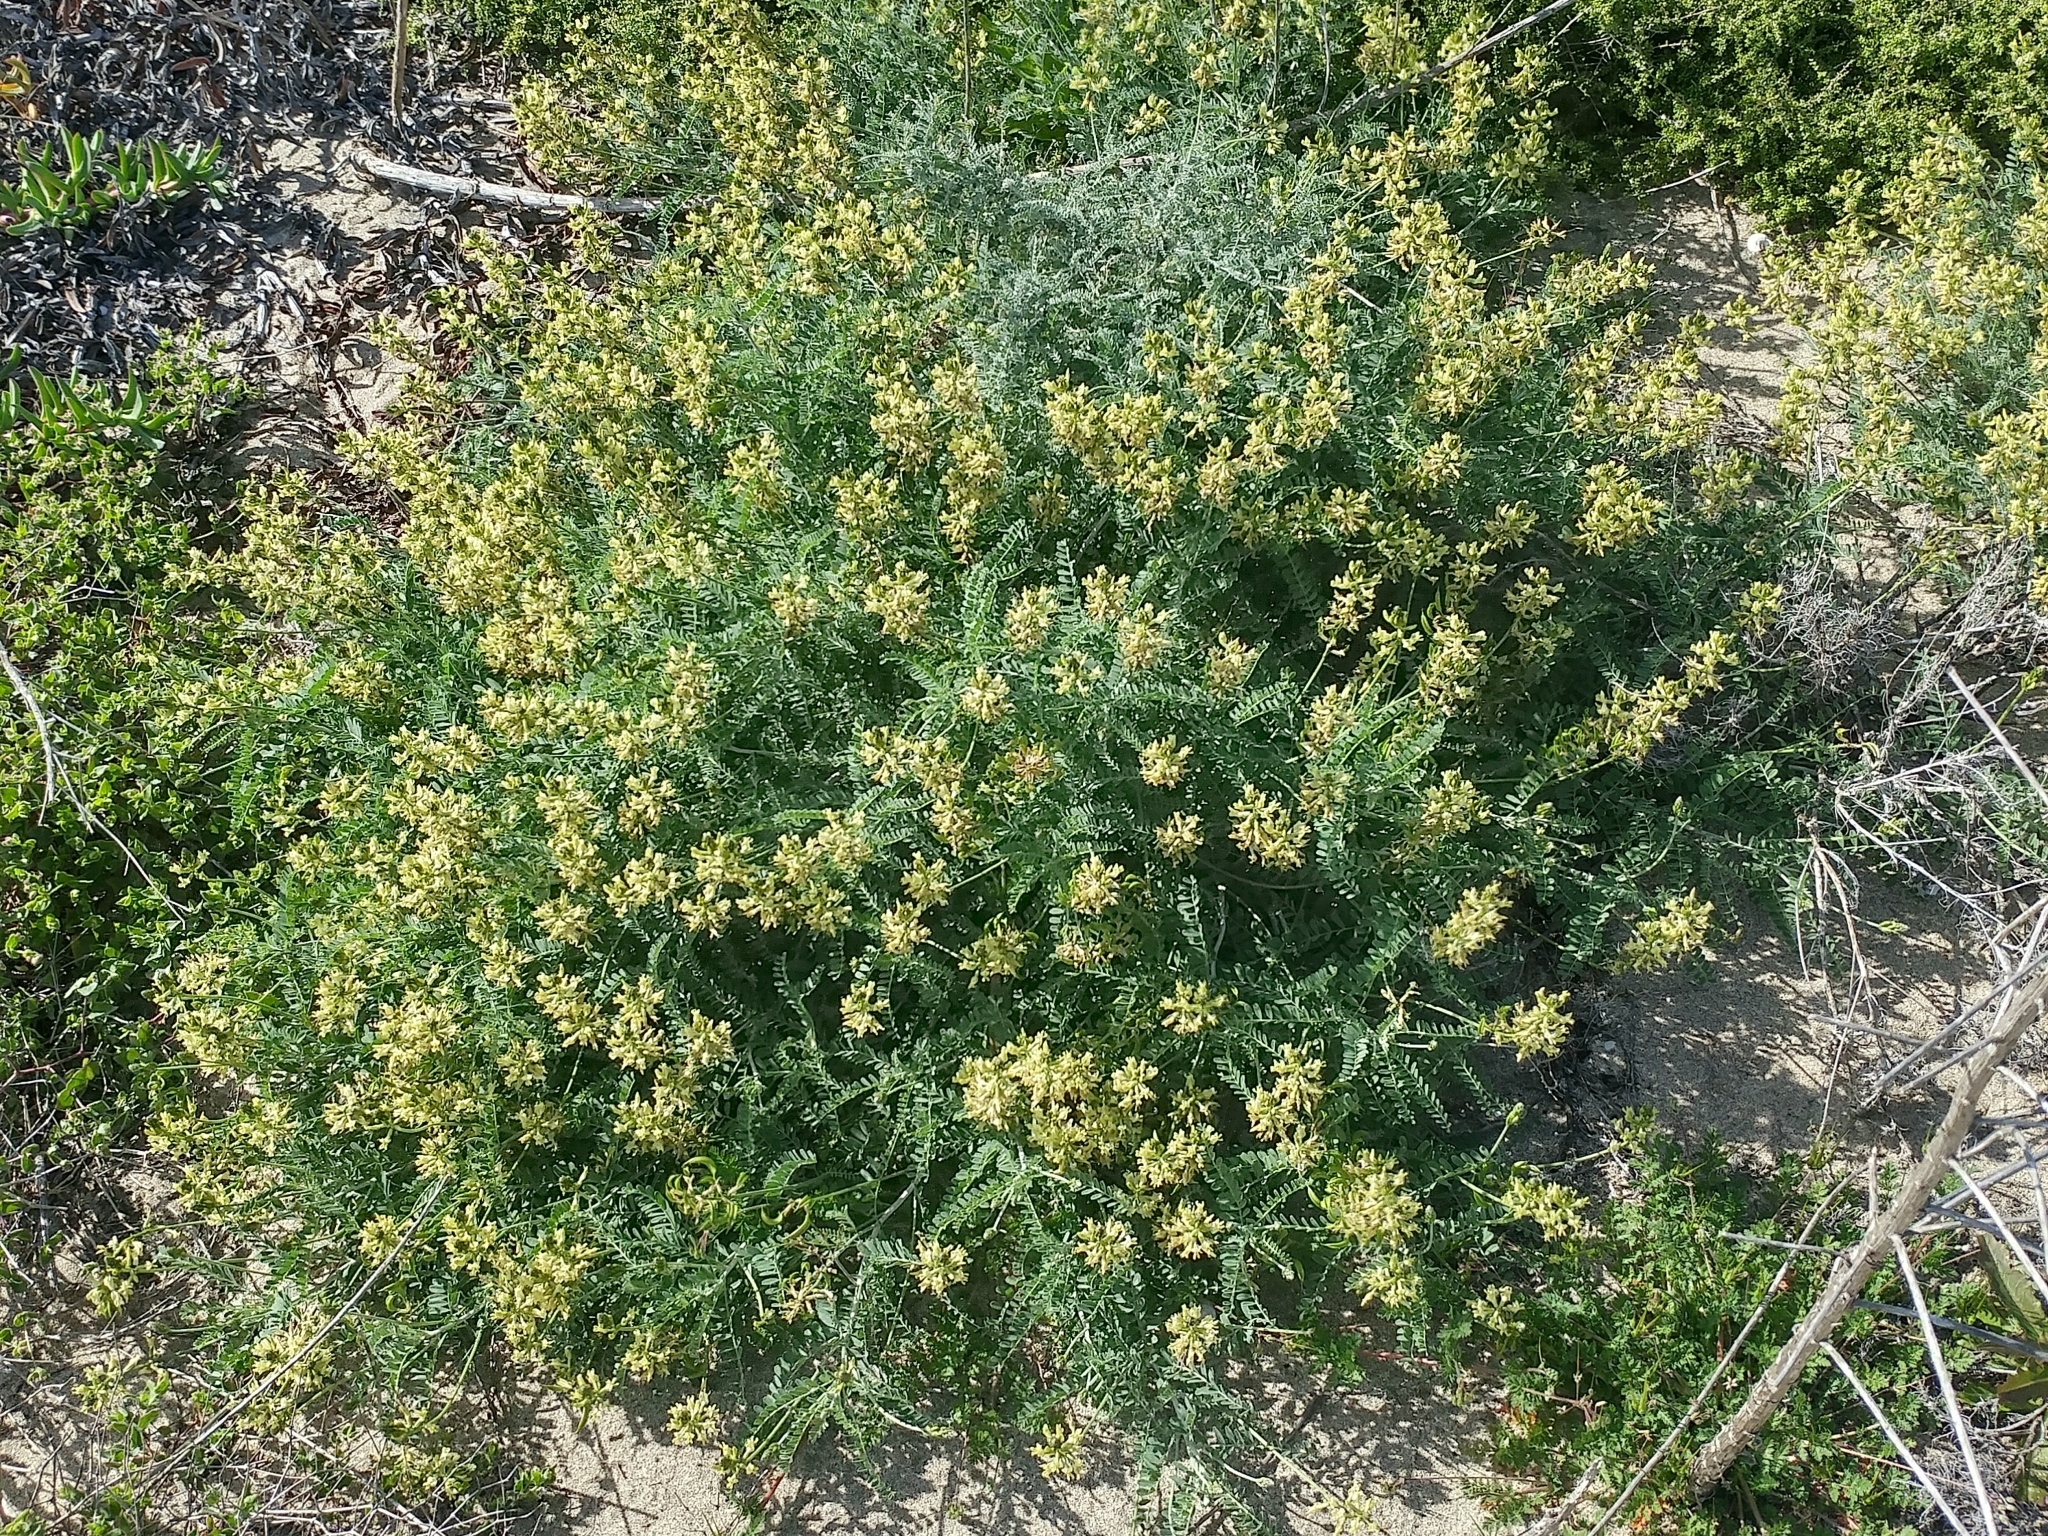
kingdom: Plantae
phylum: Tracheophyta
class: Magnoliopsida
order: Fabales
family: Fabaceae
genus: Astragalus
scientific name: Astragalus nevinii
